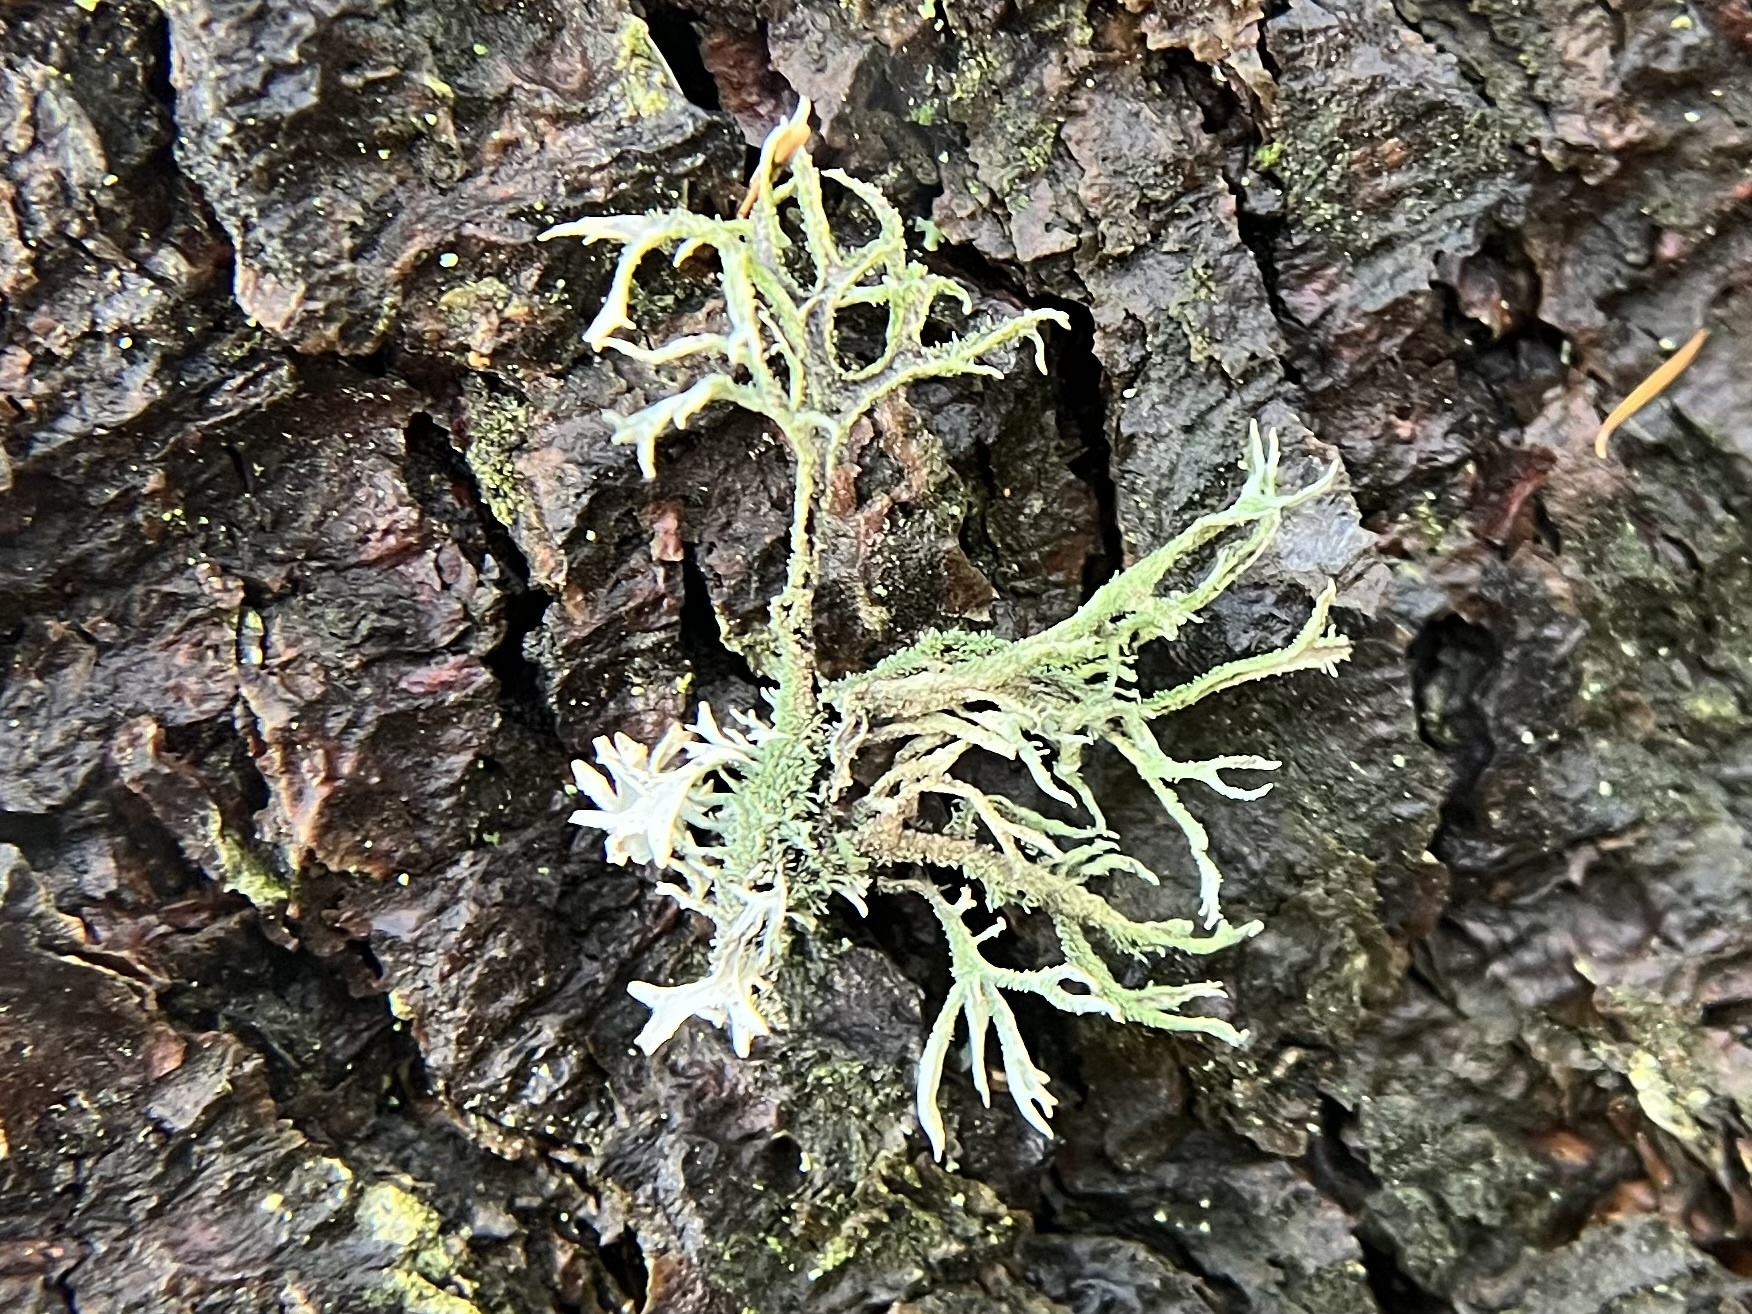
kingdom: Fungi
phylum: Ascomycota
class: Lecanoromycetes
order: Lecanorales
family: Parmeliaceae
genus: Pseudevernia
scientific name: Pseudevernia furfuracea
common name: Tree moss
